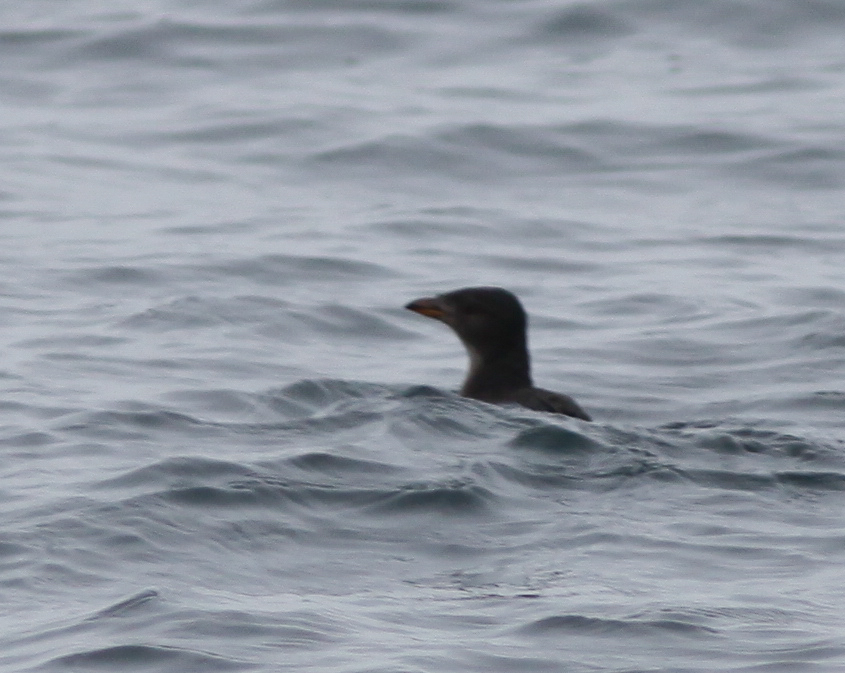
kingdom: Animalia
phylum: Chordata
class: Aves
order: Charadriiformes
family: Alcidae
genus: Cerorhinca
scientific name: Cerorhinca monocerata
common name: Rhinoceros auklet
